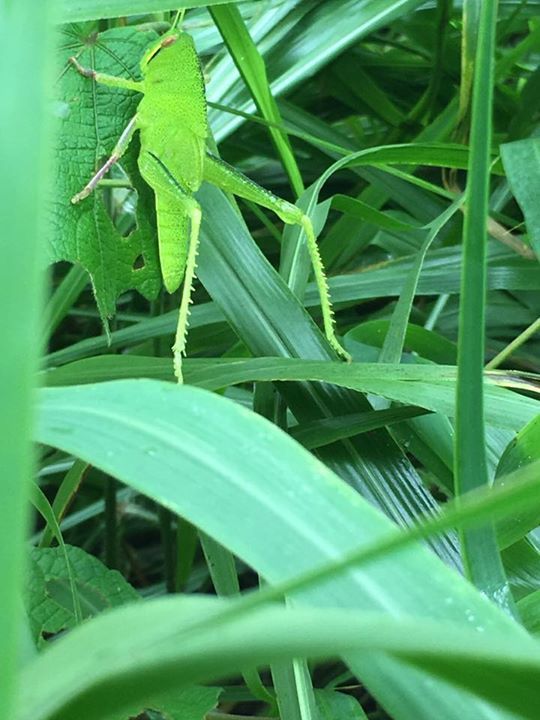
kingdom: Animalia
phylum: Arthropoda
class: Insecta
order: Orthoptera
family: Acrididae
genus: Chondracris
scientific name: Chondracris rosea
